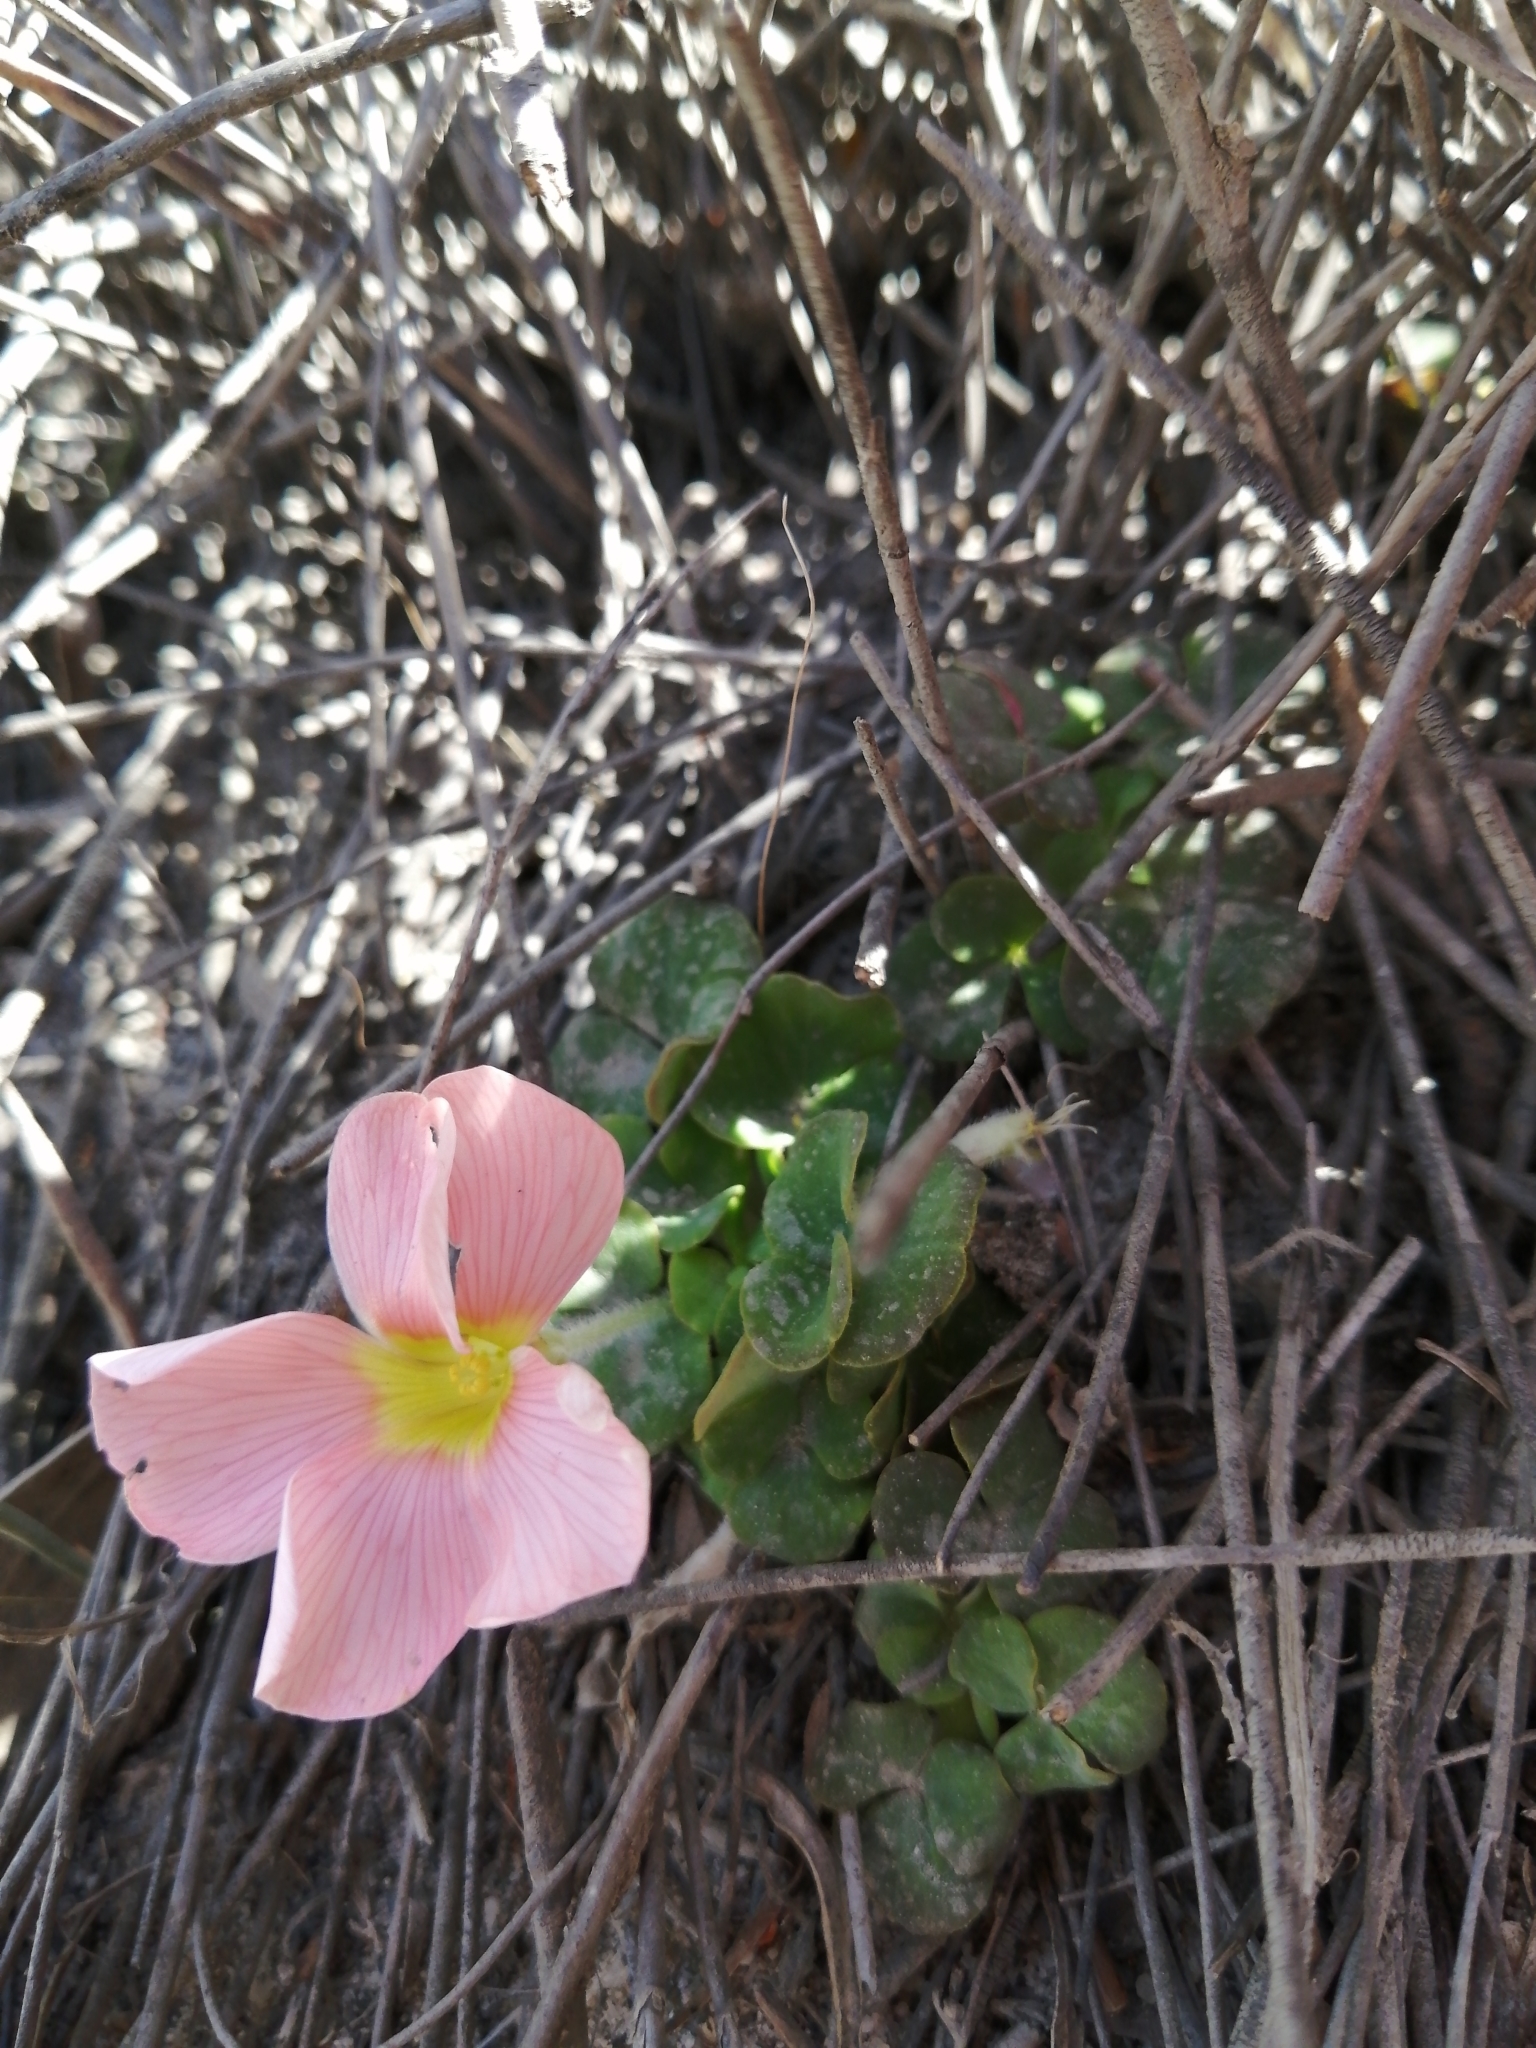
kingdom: Plantae
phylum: Tracheophyta
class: Magnoliopsida
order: Oxalidales
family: Oxalidaceae
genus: Oxalis
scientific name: Oxalis pulchella
